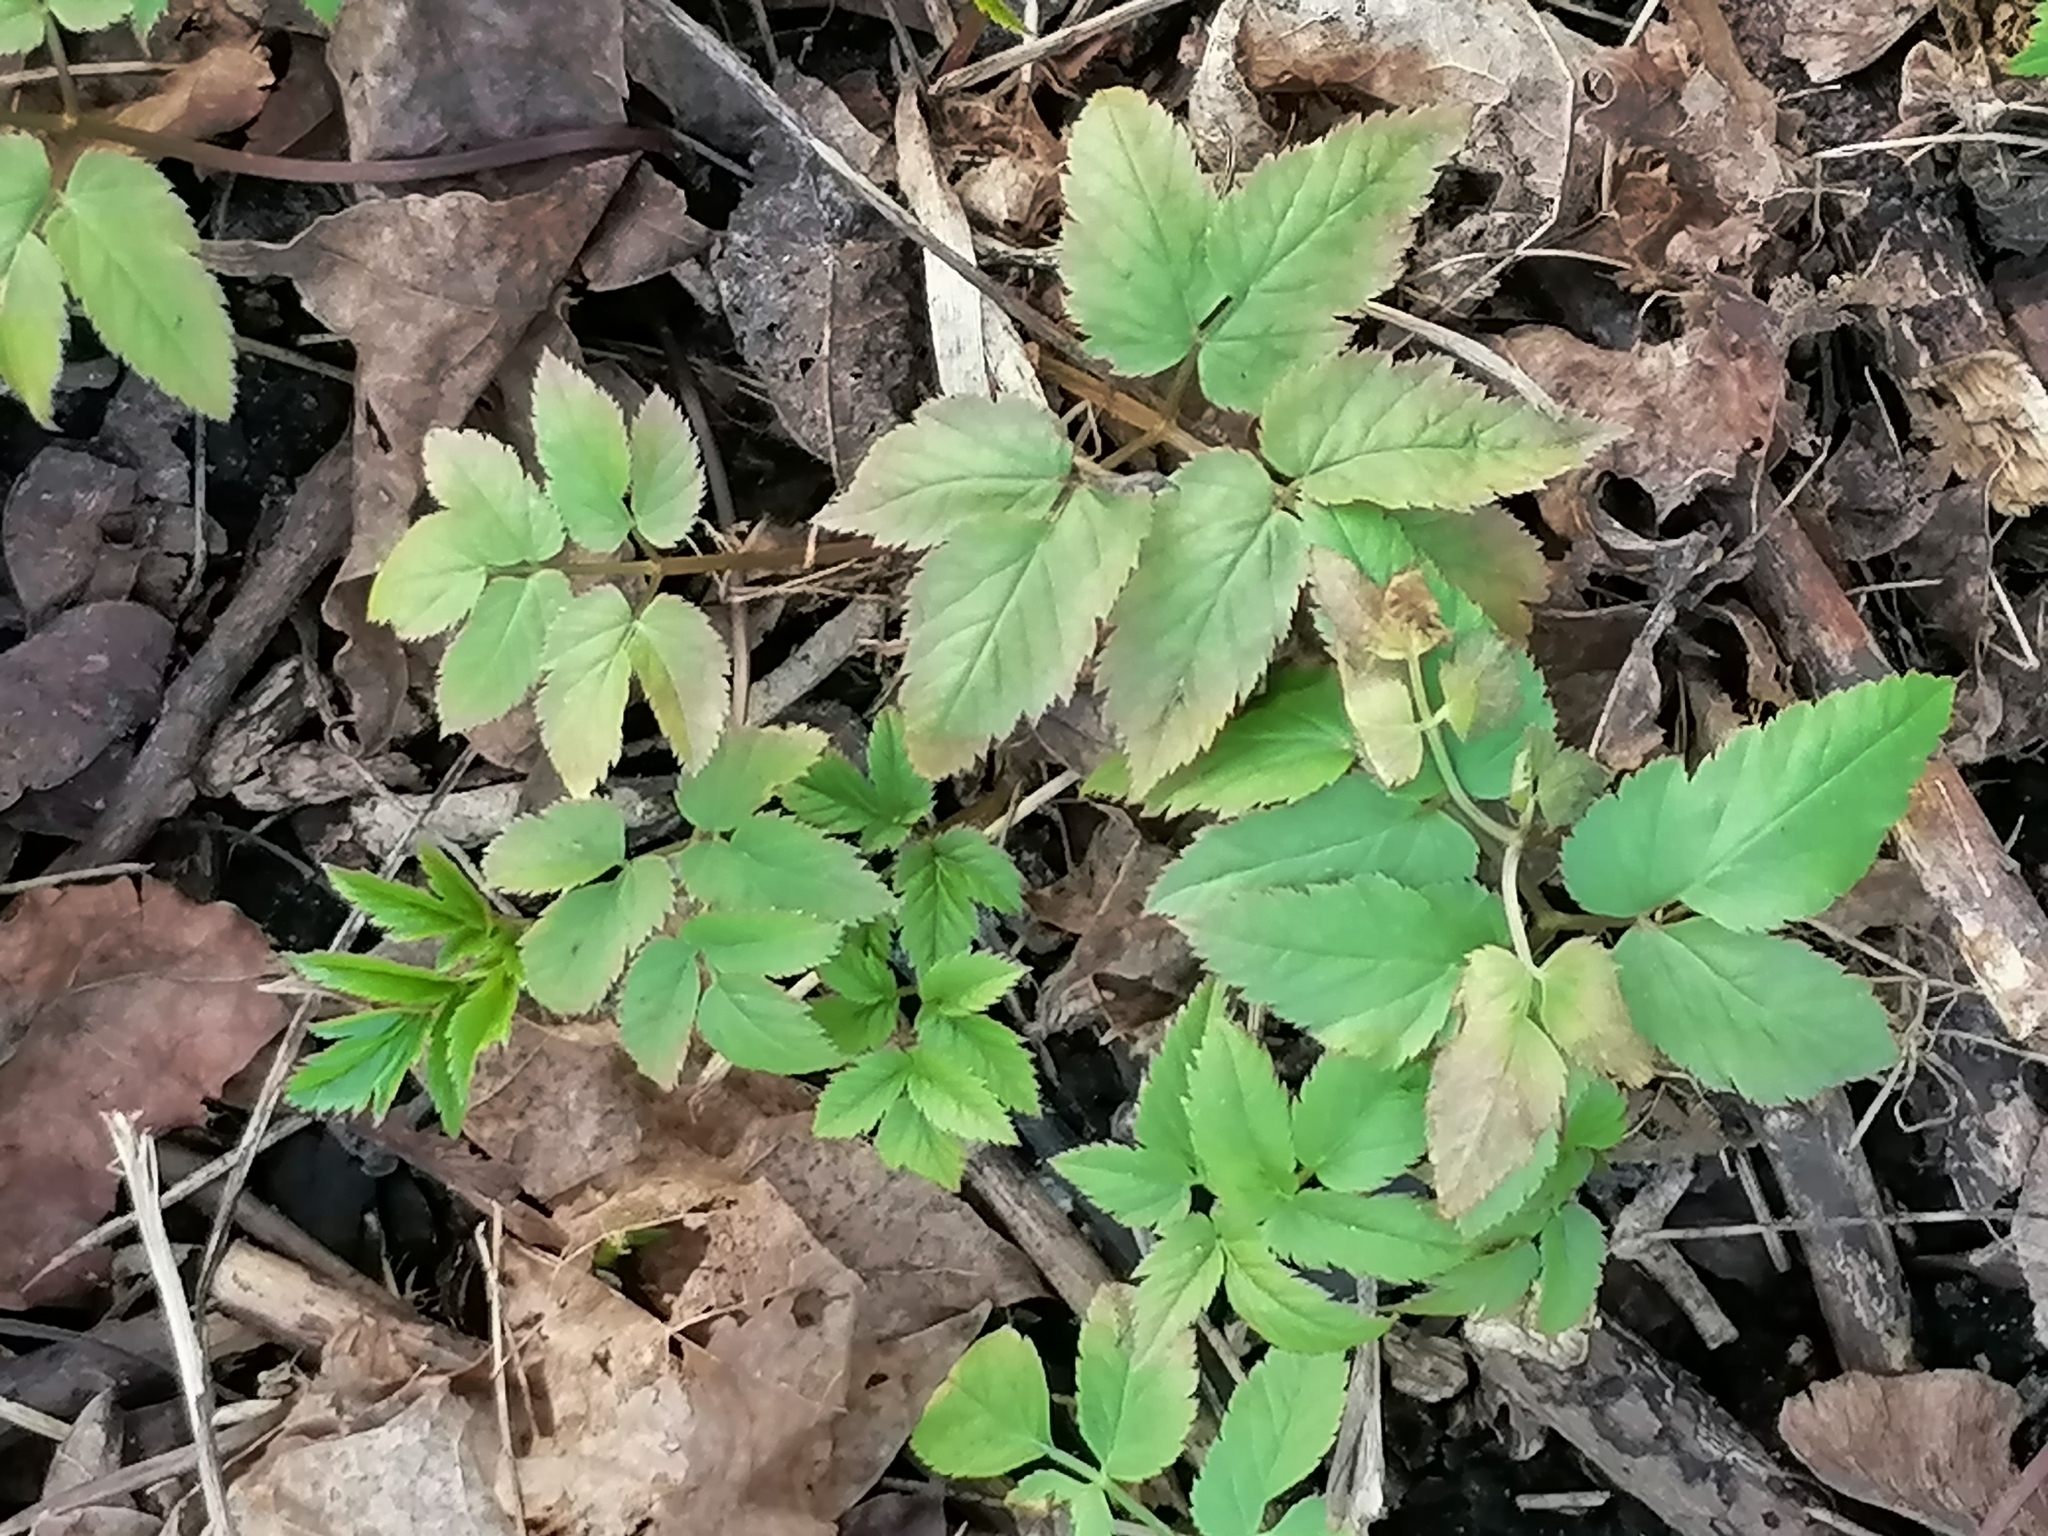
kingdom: Plantae
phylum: Tracheophyta
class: Magnoliopsida
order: Apiales
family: Apiaceae
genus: Aegopodium
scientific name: Aegopodium podagraria
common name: Ground-elder
